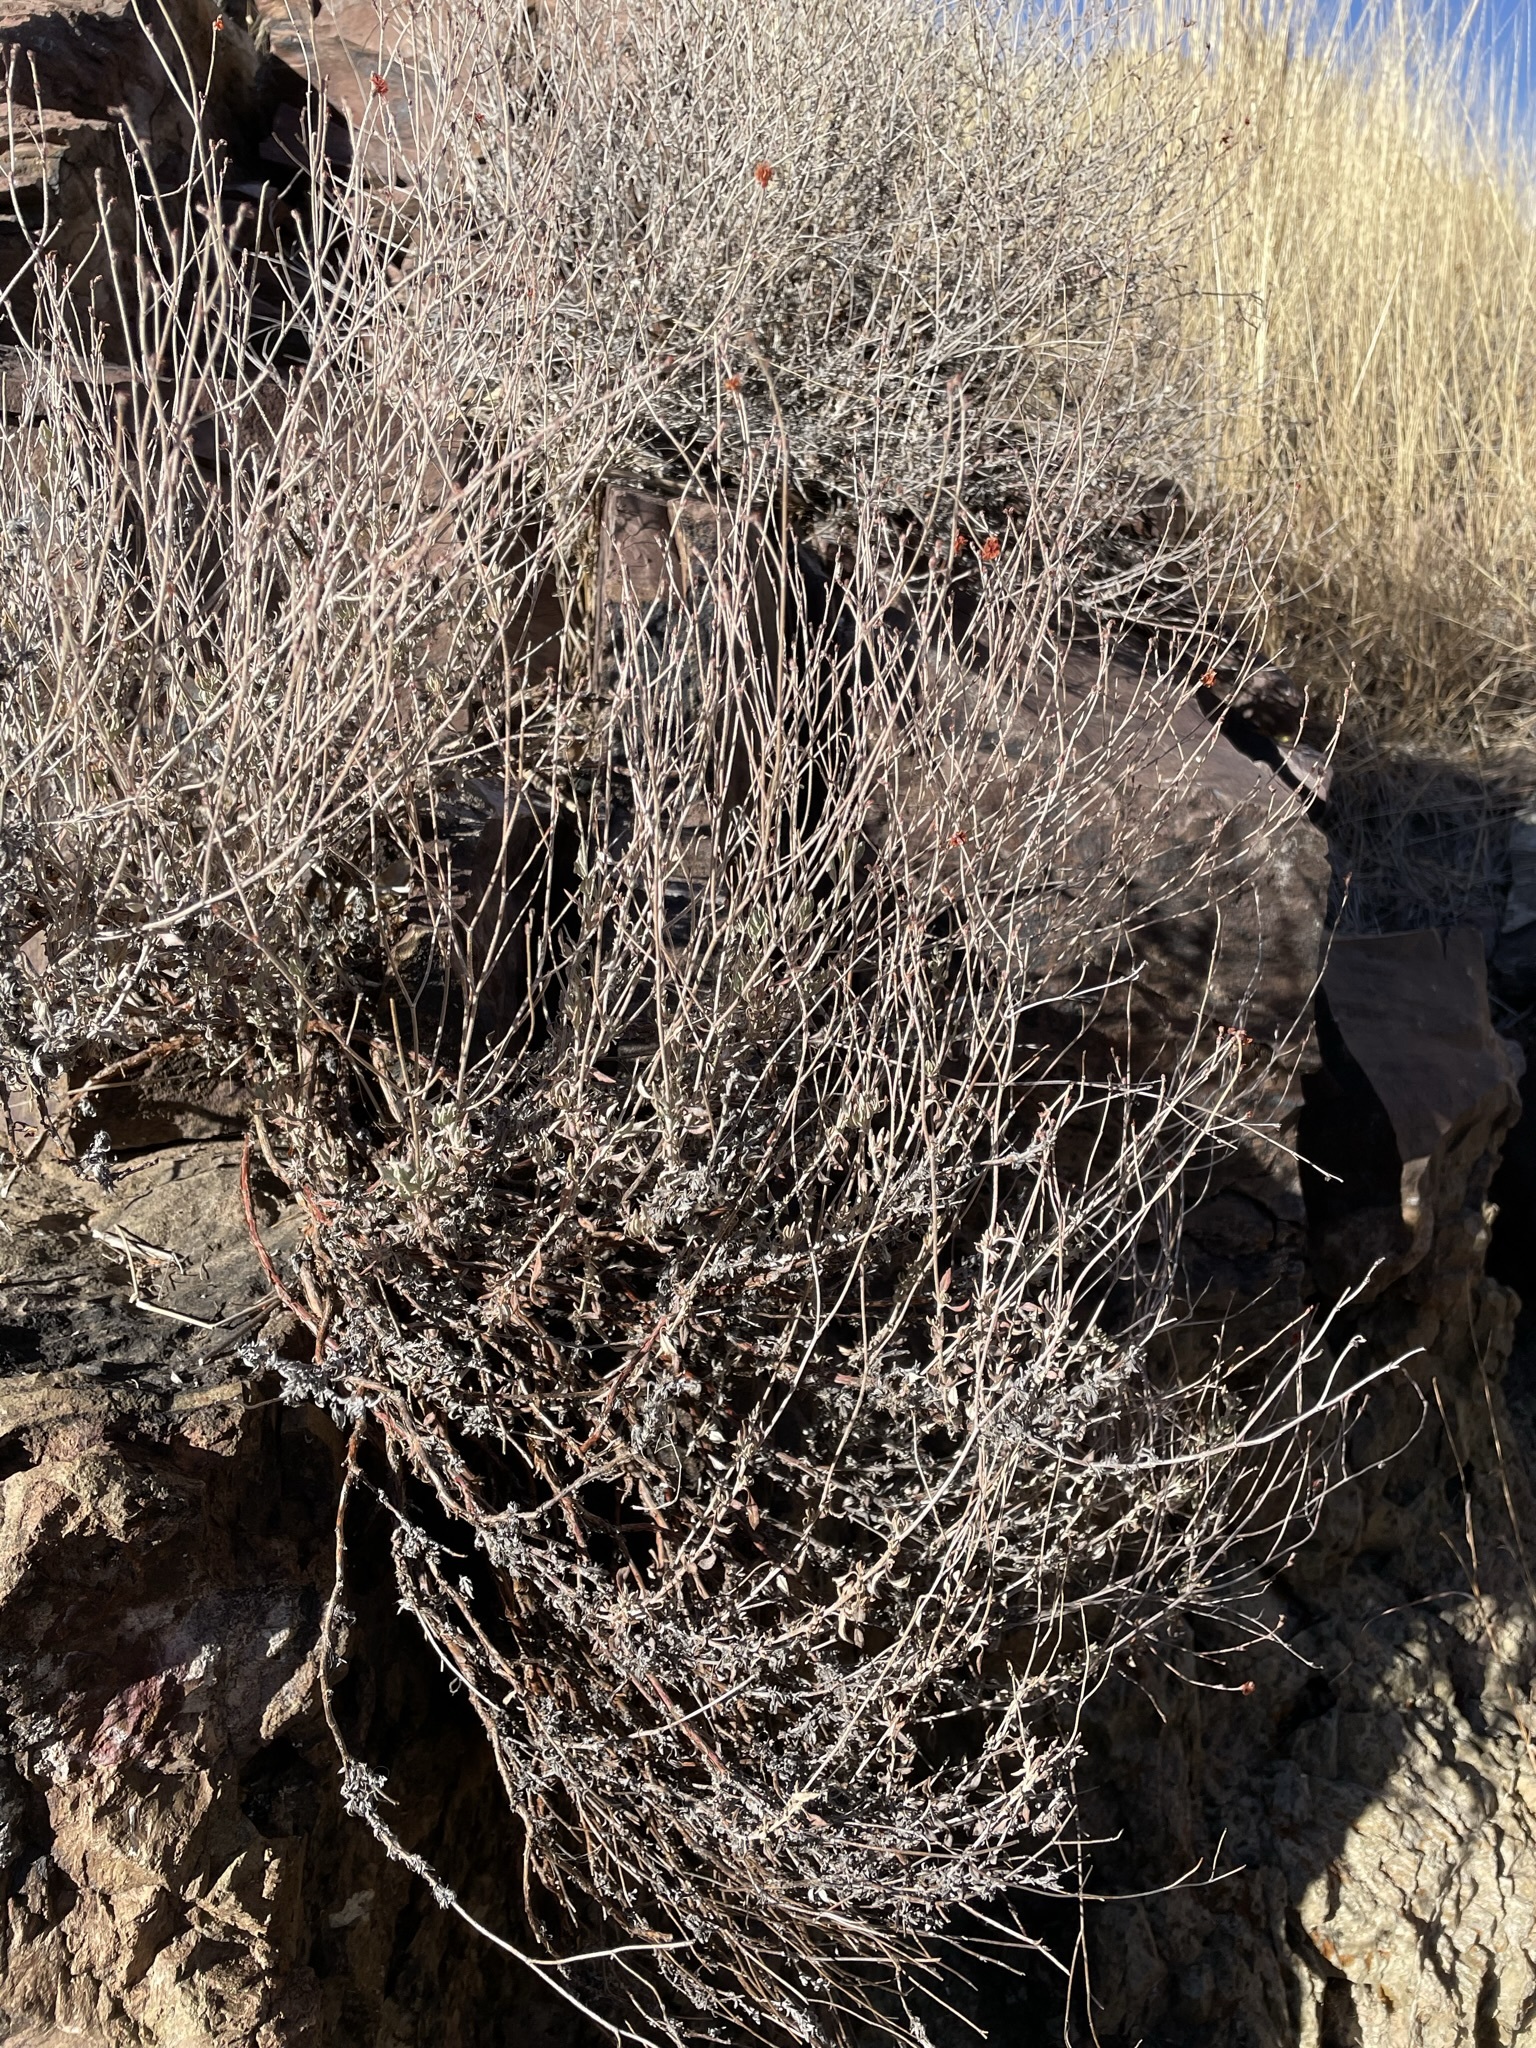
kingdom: Plantae
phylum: Tracheophyta
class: Magnoliopsida
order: Caryophyllales
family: Polygonaceae
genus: Eriogonum
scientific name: Eriogonum wrightii
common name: Bastard-sage
